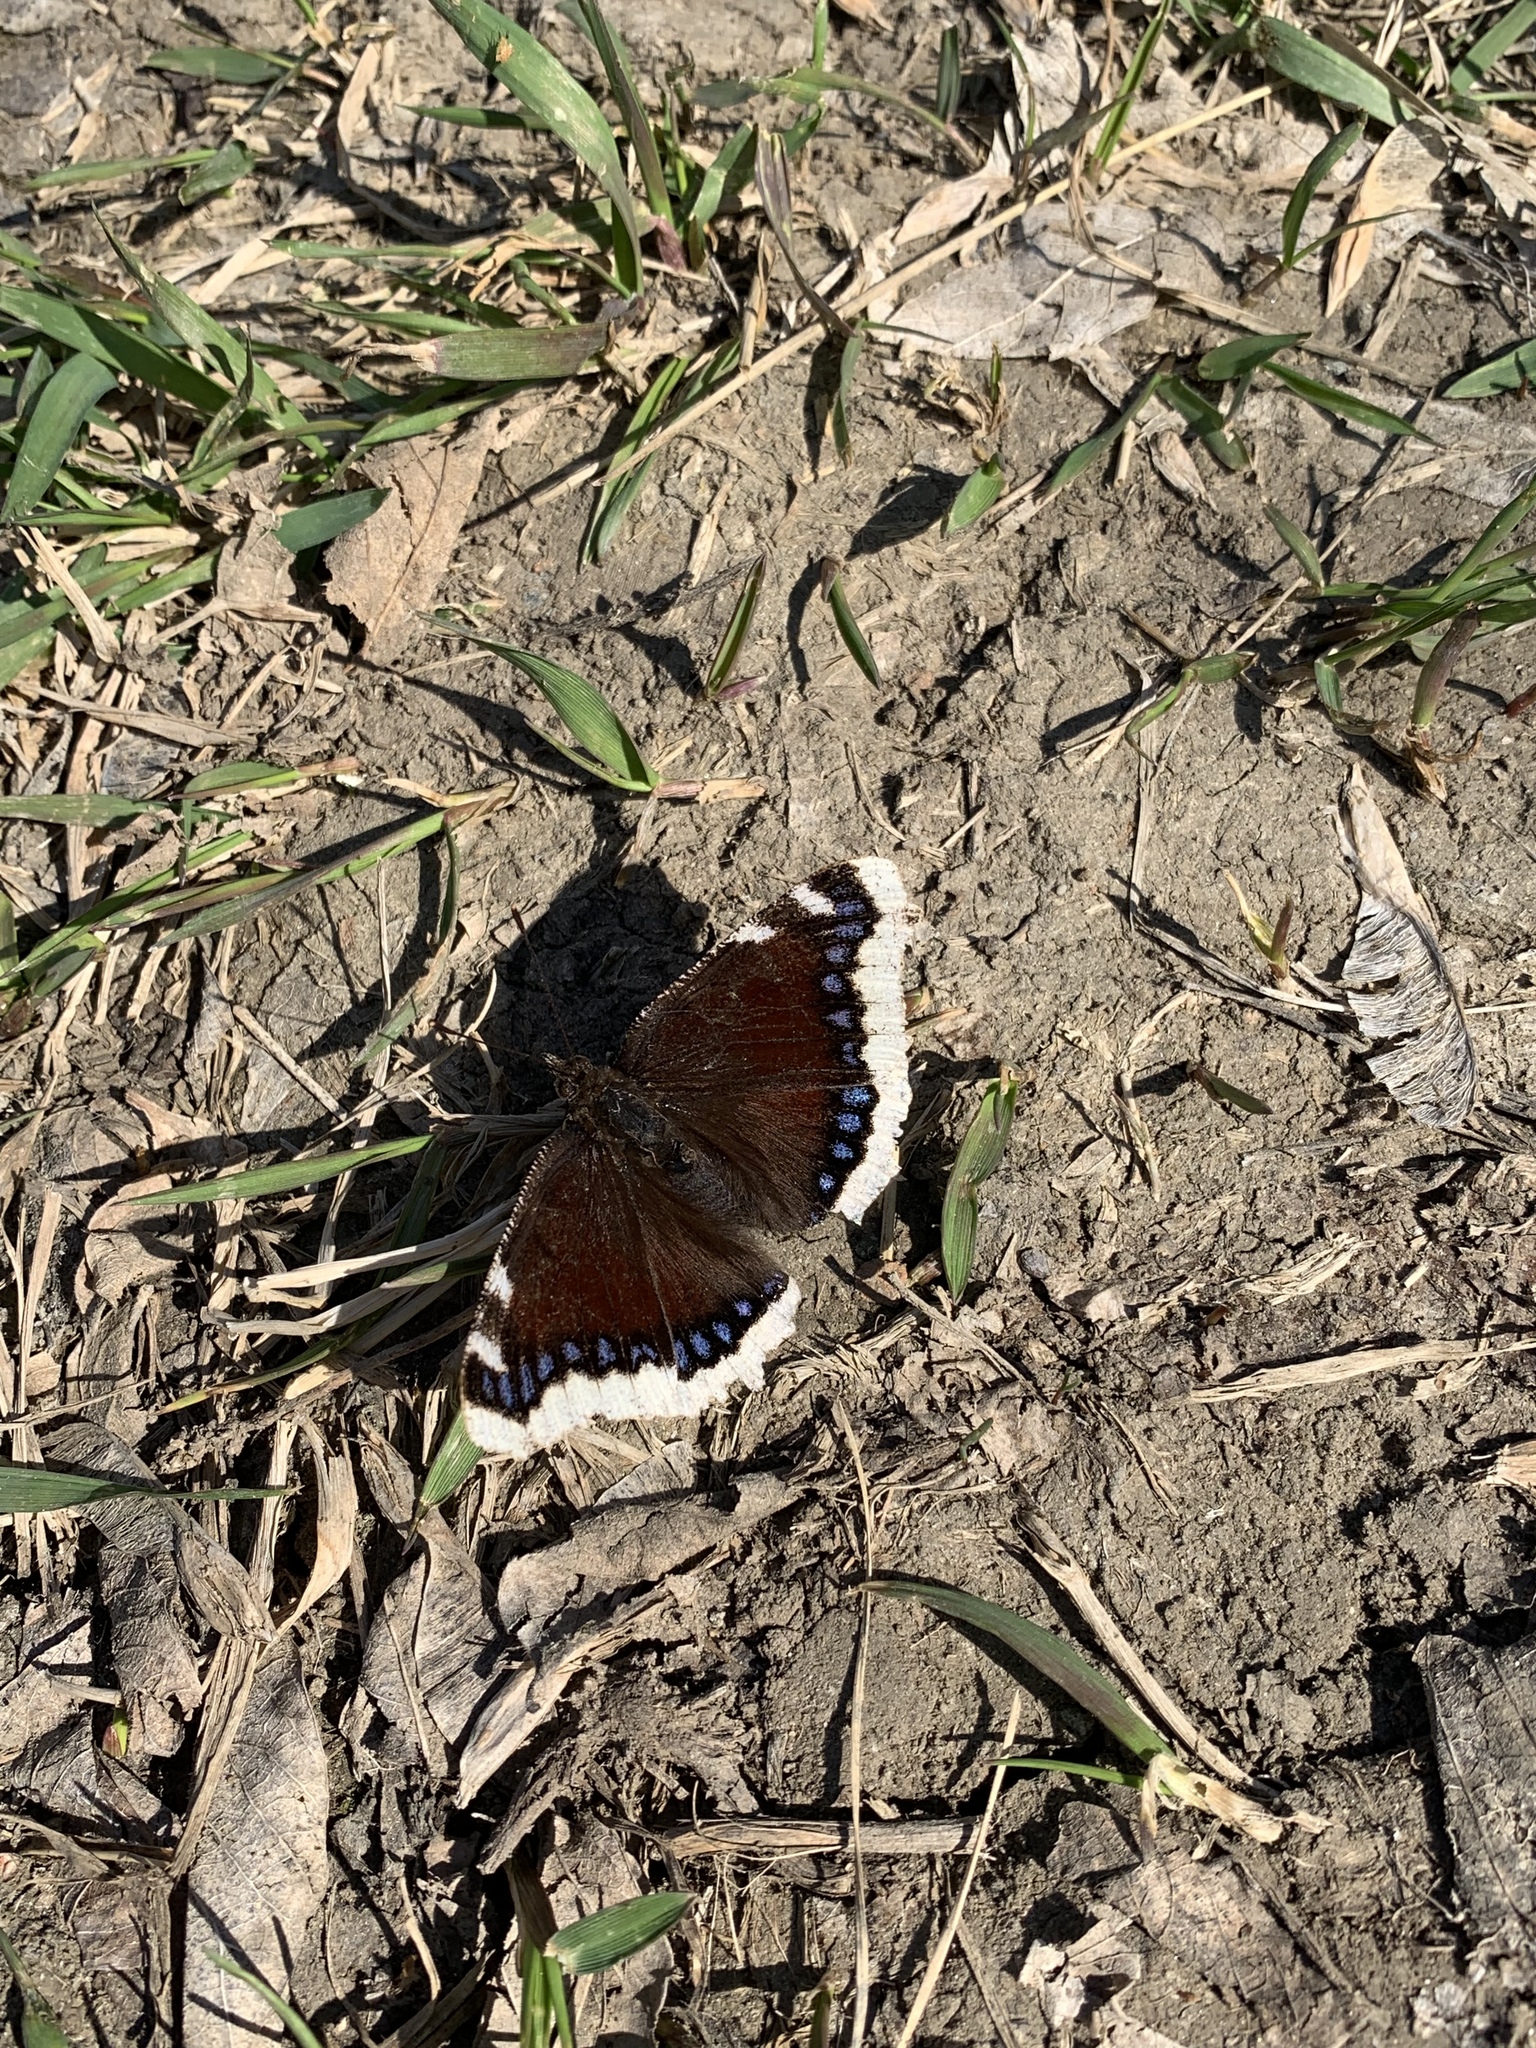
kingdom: Animalia
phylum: Arthropoda
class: Insecta
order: Lepidoptera
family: Nymphalidae
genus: Nymphalis
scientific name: Nymphalis antiopa
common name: Camberwell beauty
